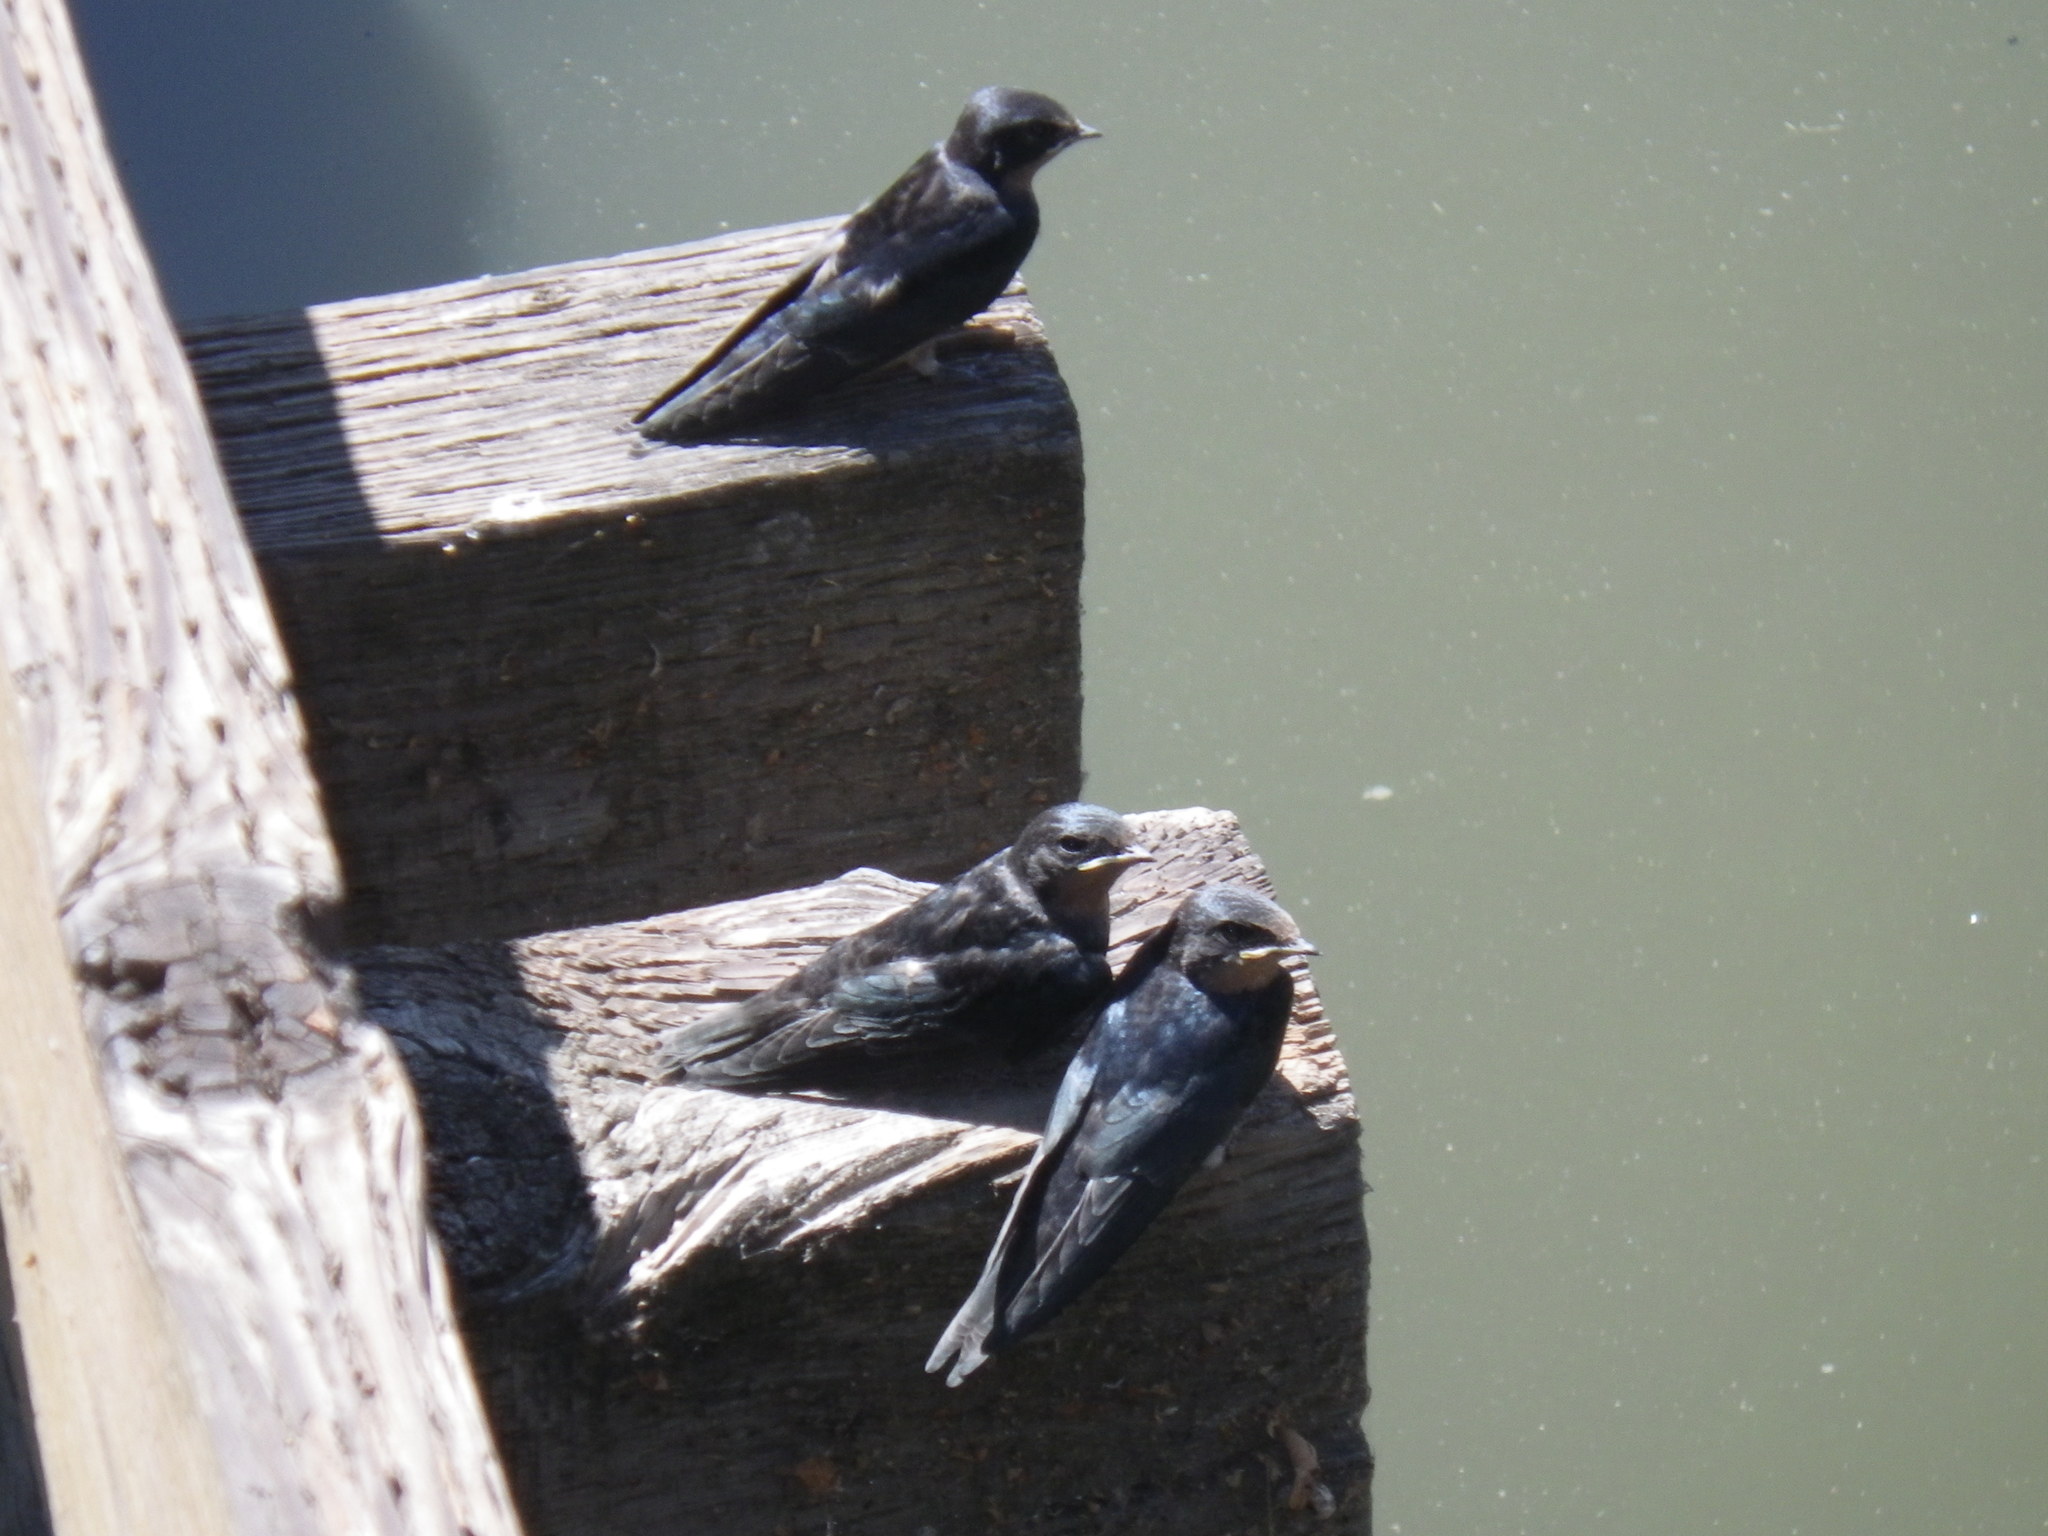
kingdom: Animalia
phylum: Chordata
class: Aves
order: Passeriformes
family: Hirundinidae
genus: Hirundo
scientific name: Hirundo rustica
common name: Barn swallow
